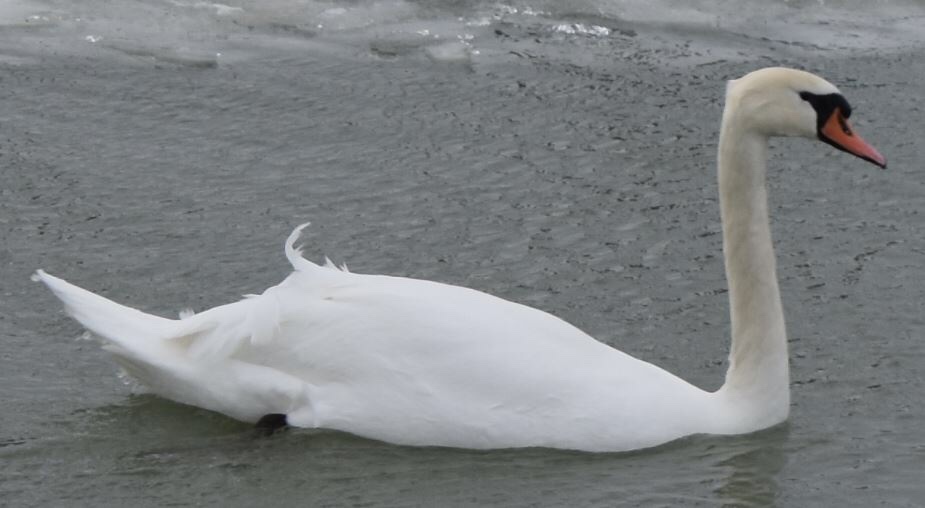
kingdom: Animalia
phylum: Chordata
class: Aves
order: Anseriformes
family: Anatidae
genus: Cygnus
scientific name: Cygnus olor
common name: Mute swan
